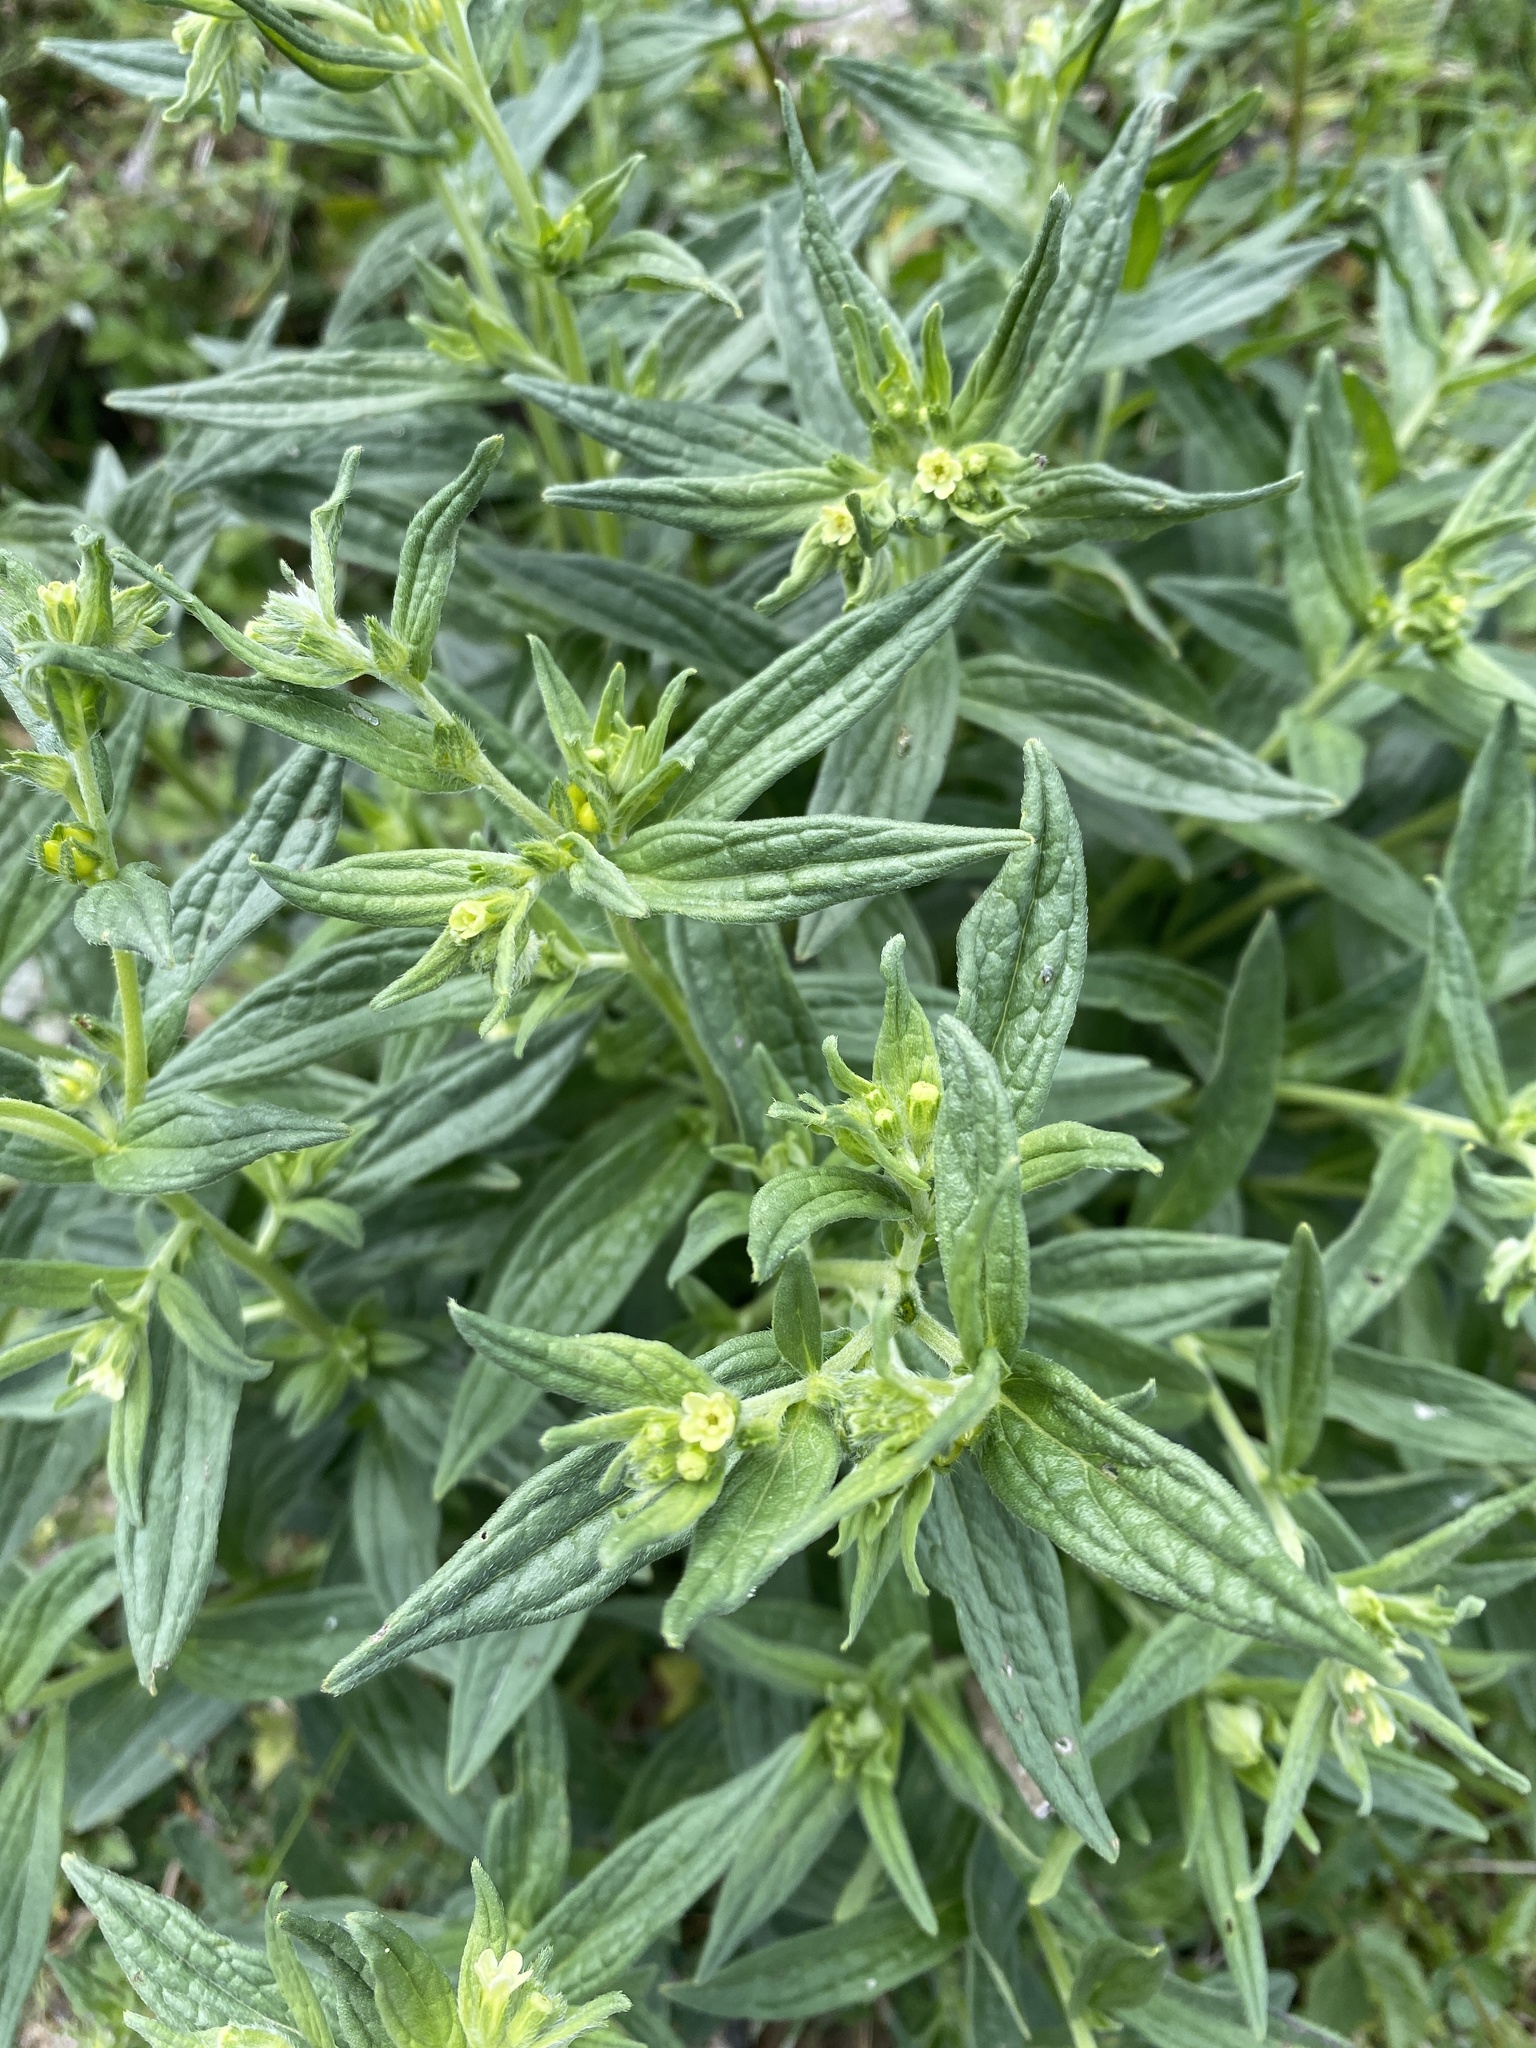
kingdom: Plantae
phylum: Tracheophyta
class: Magnoliopsida
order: Boraginales
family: Boraginaceae
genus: Lithospermum
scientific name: Lithospermum officinale
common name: Common gromwell
